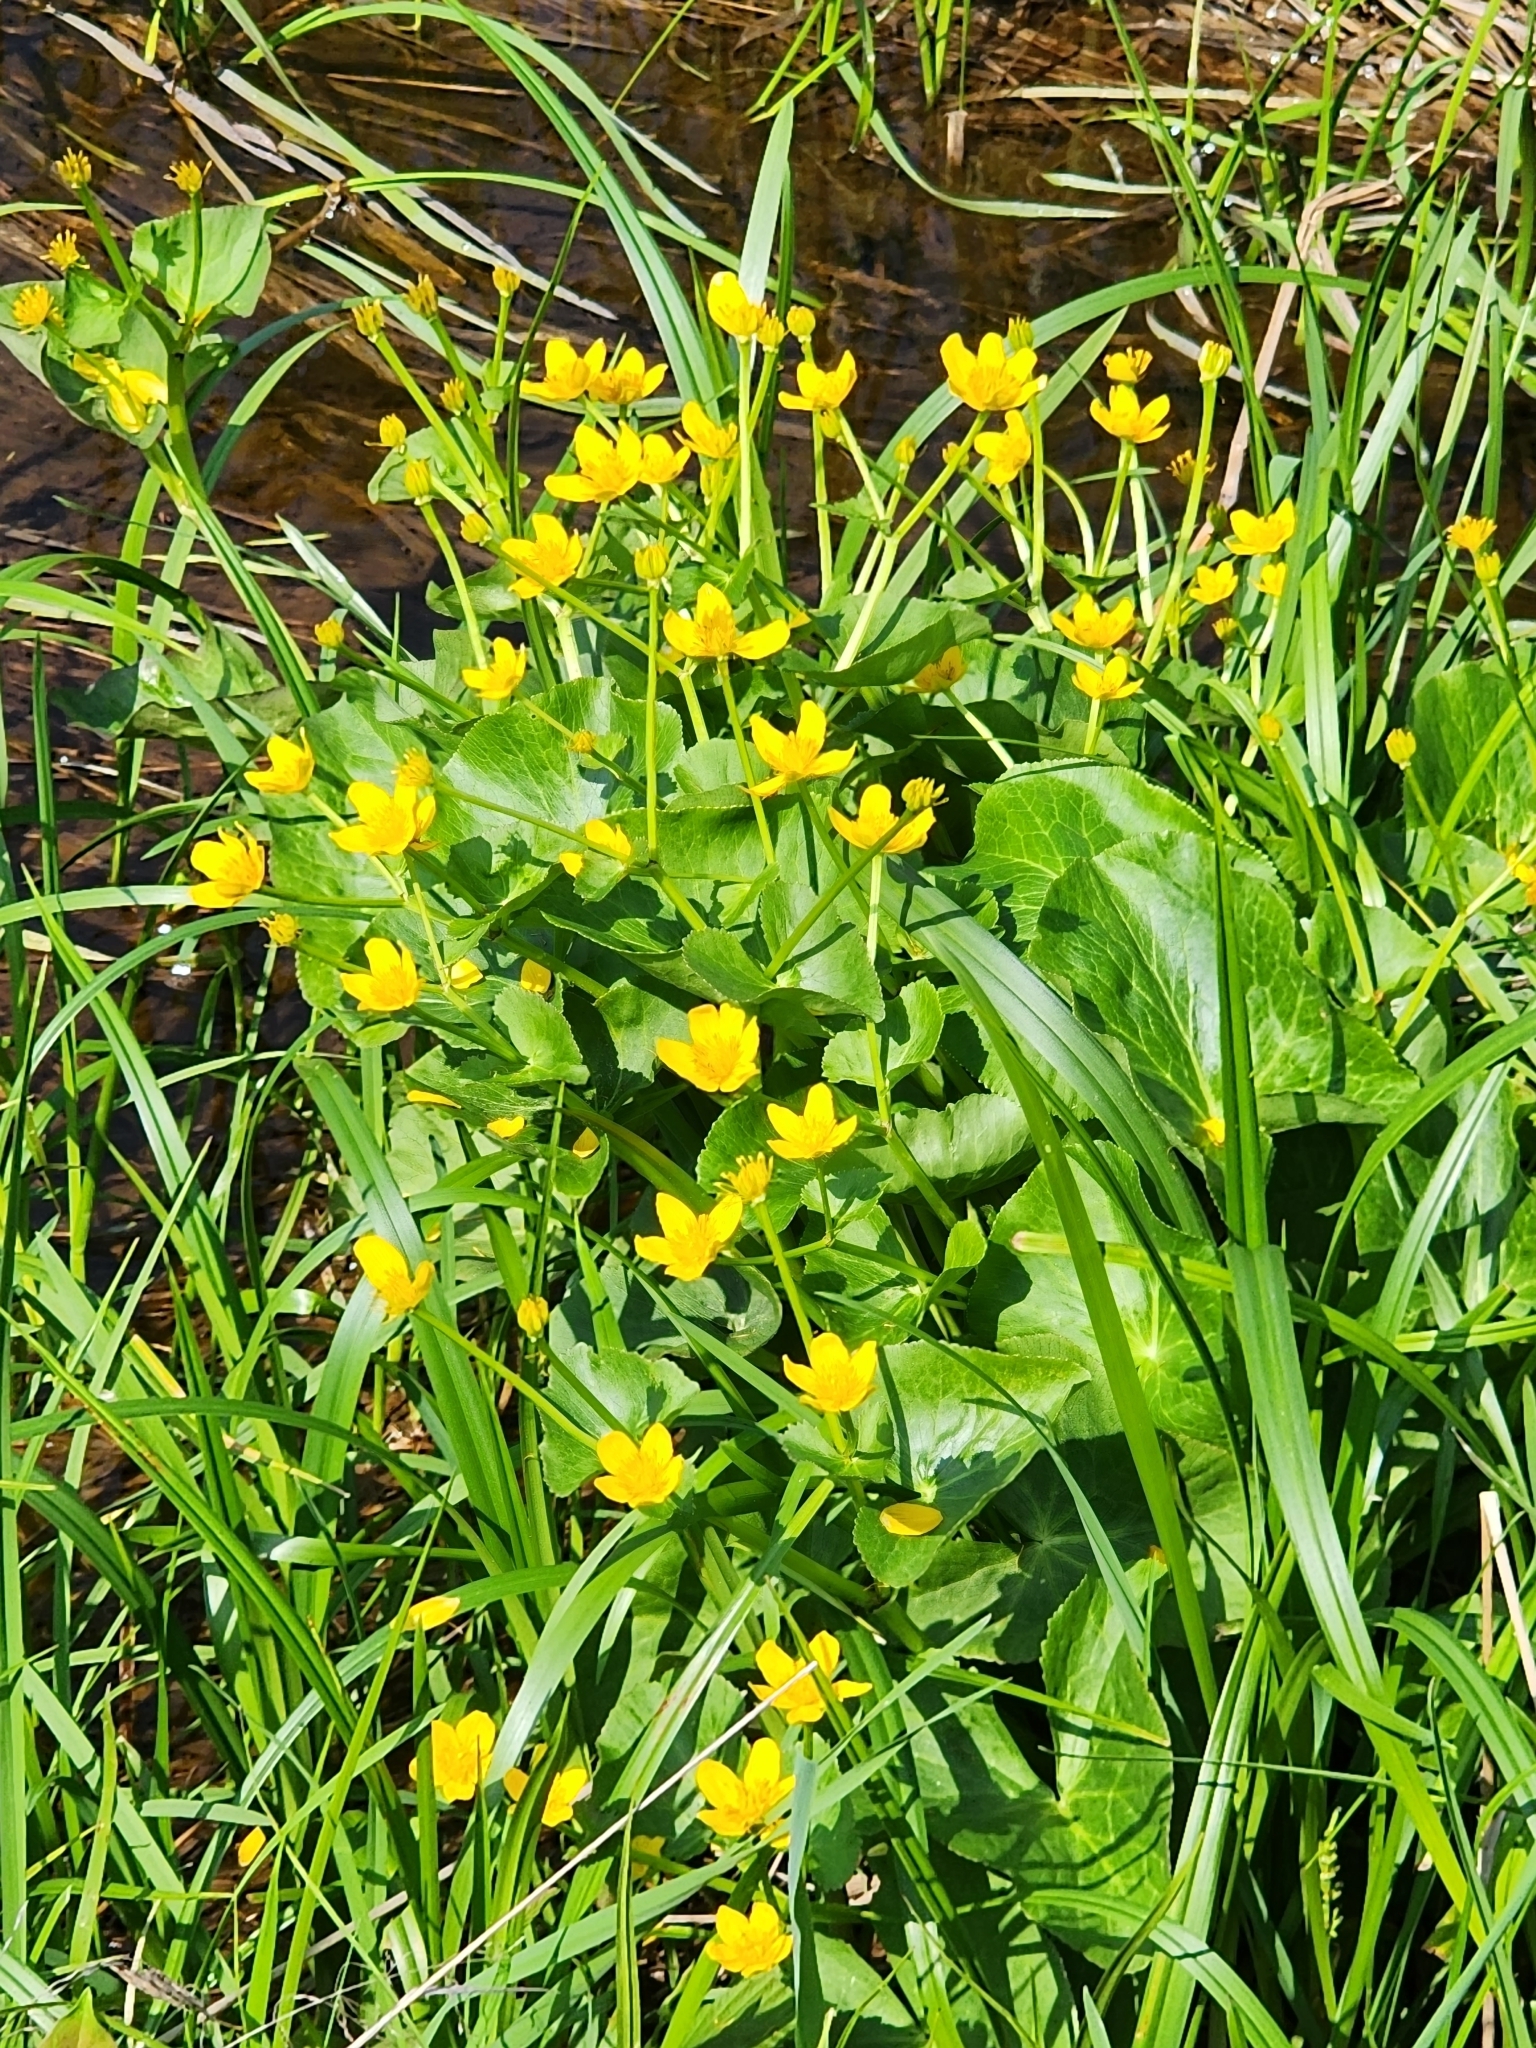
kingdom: Plantae
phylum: Tracheophyta
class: Magnoliopsida
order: Ranunculales
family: Ranunculaceae
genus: Caltha
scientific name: Caltha palustris
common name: Marsh marigold
